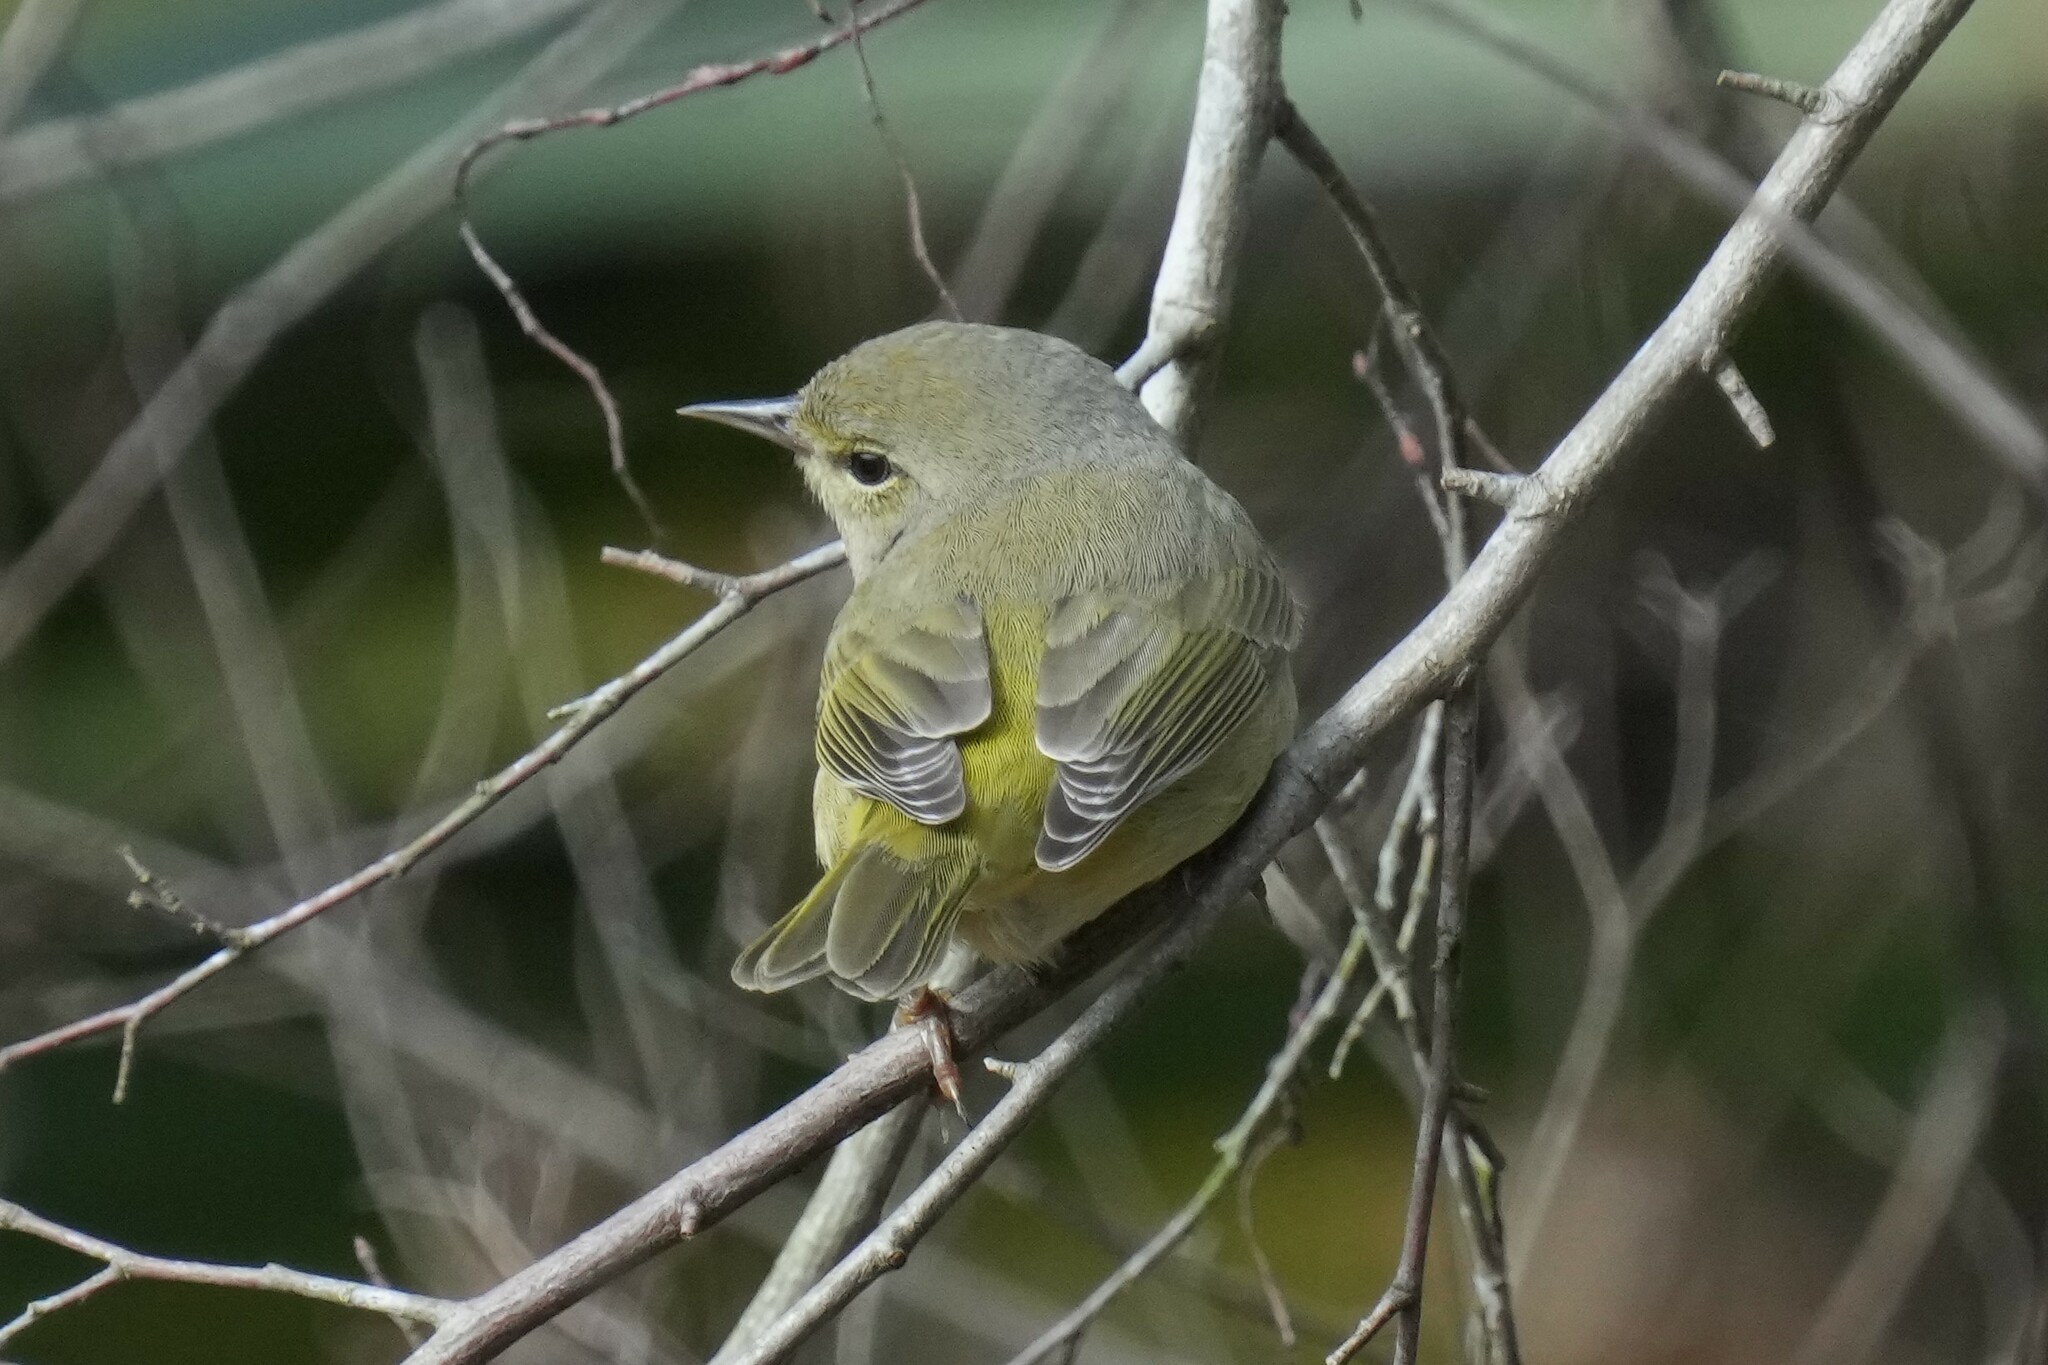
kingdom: Animalia
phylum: Chordata
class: Aves
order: Passeriformes
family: Parulidae
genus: Leiothlypis
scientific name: Leiothlypis celata
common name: Orange-crowned warbler
